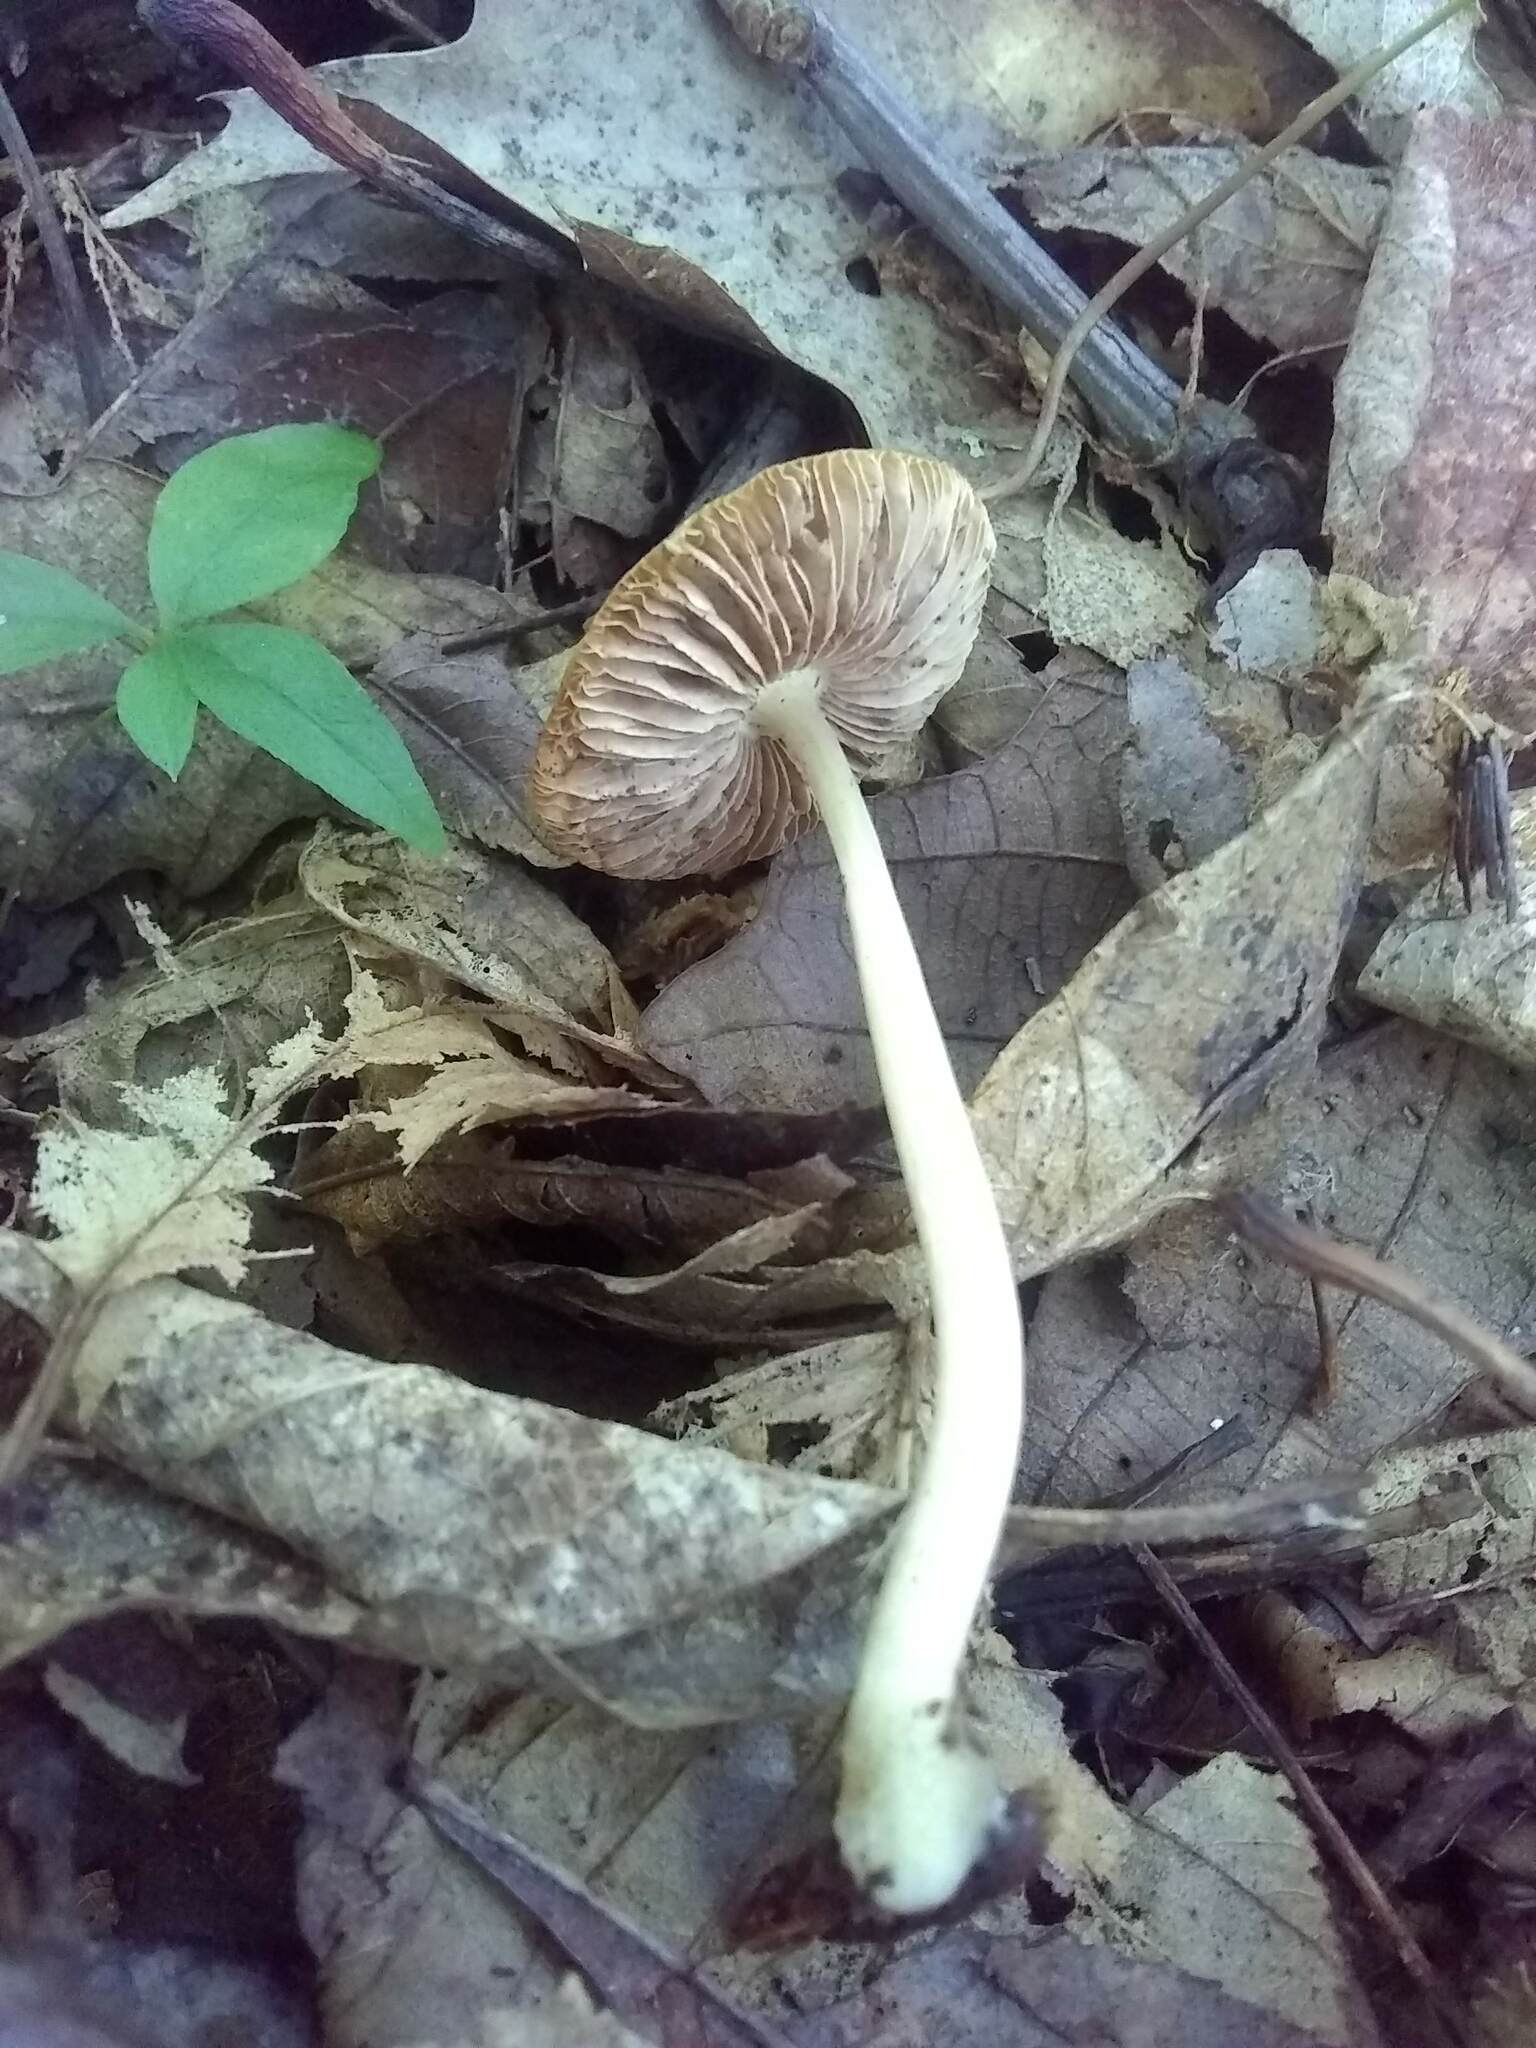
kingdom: Fungi
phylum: Basidiomycota
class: Agaricomycetes
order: Agaricales
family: Entolomataceae
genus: Entoloma
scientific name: Entoloma strictius
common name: Straight-stalked entoloma
